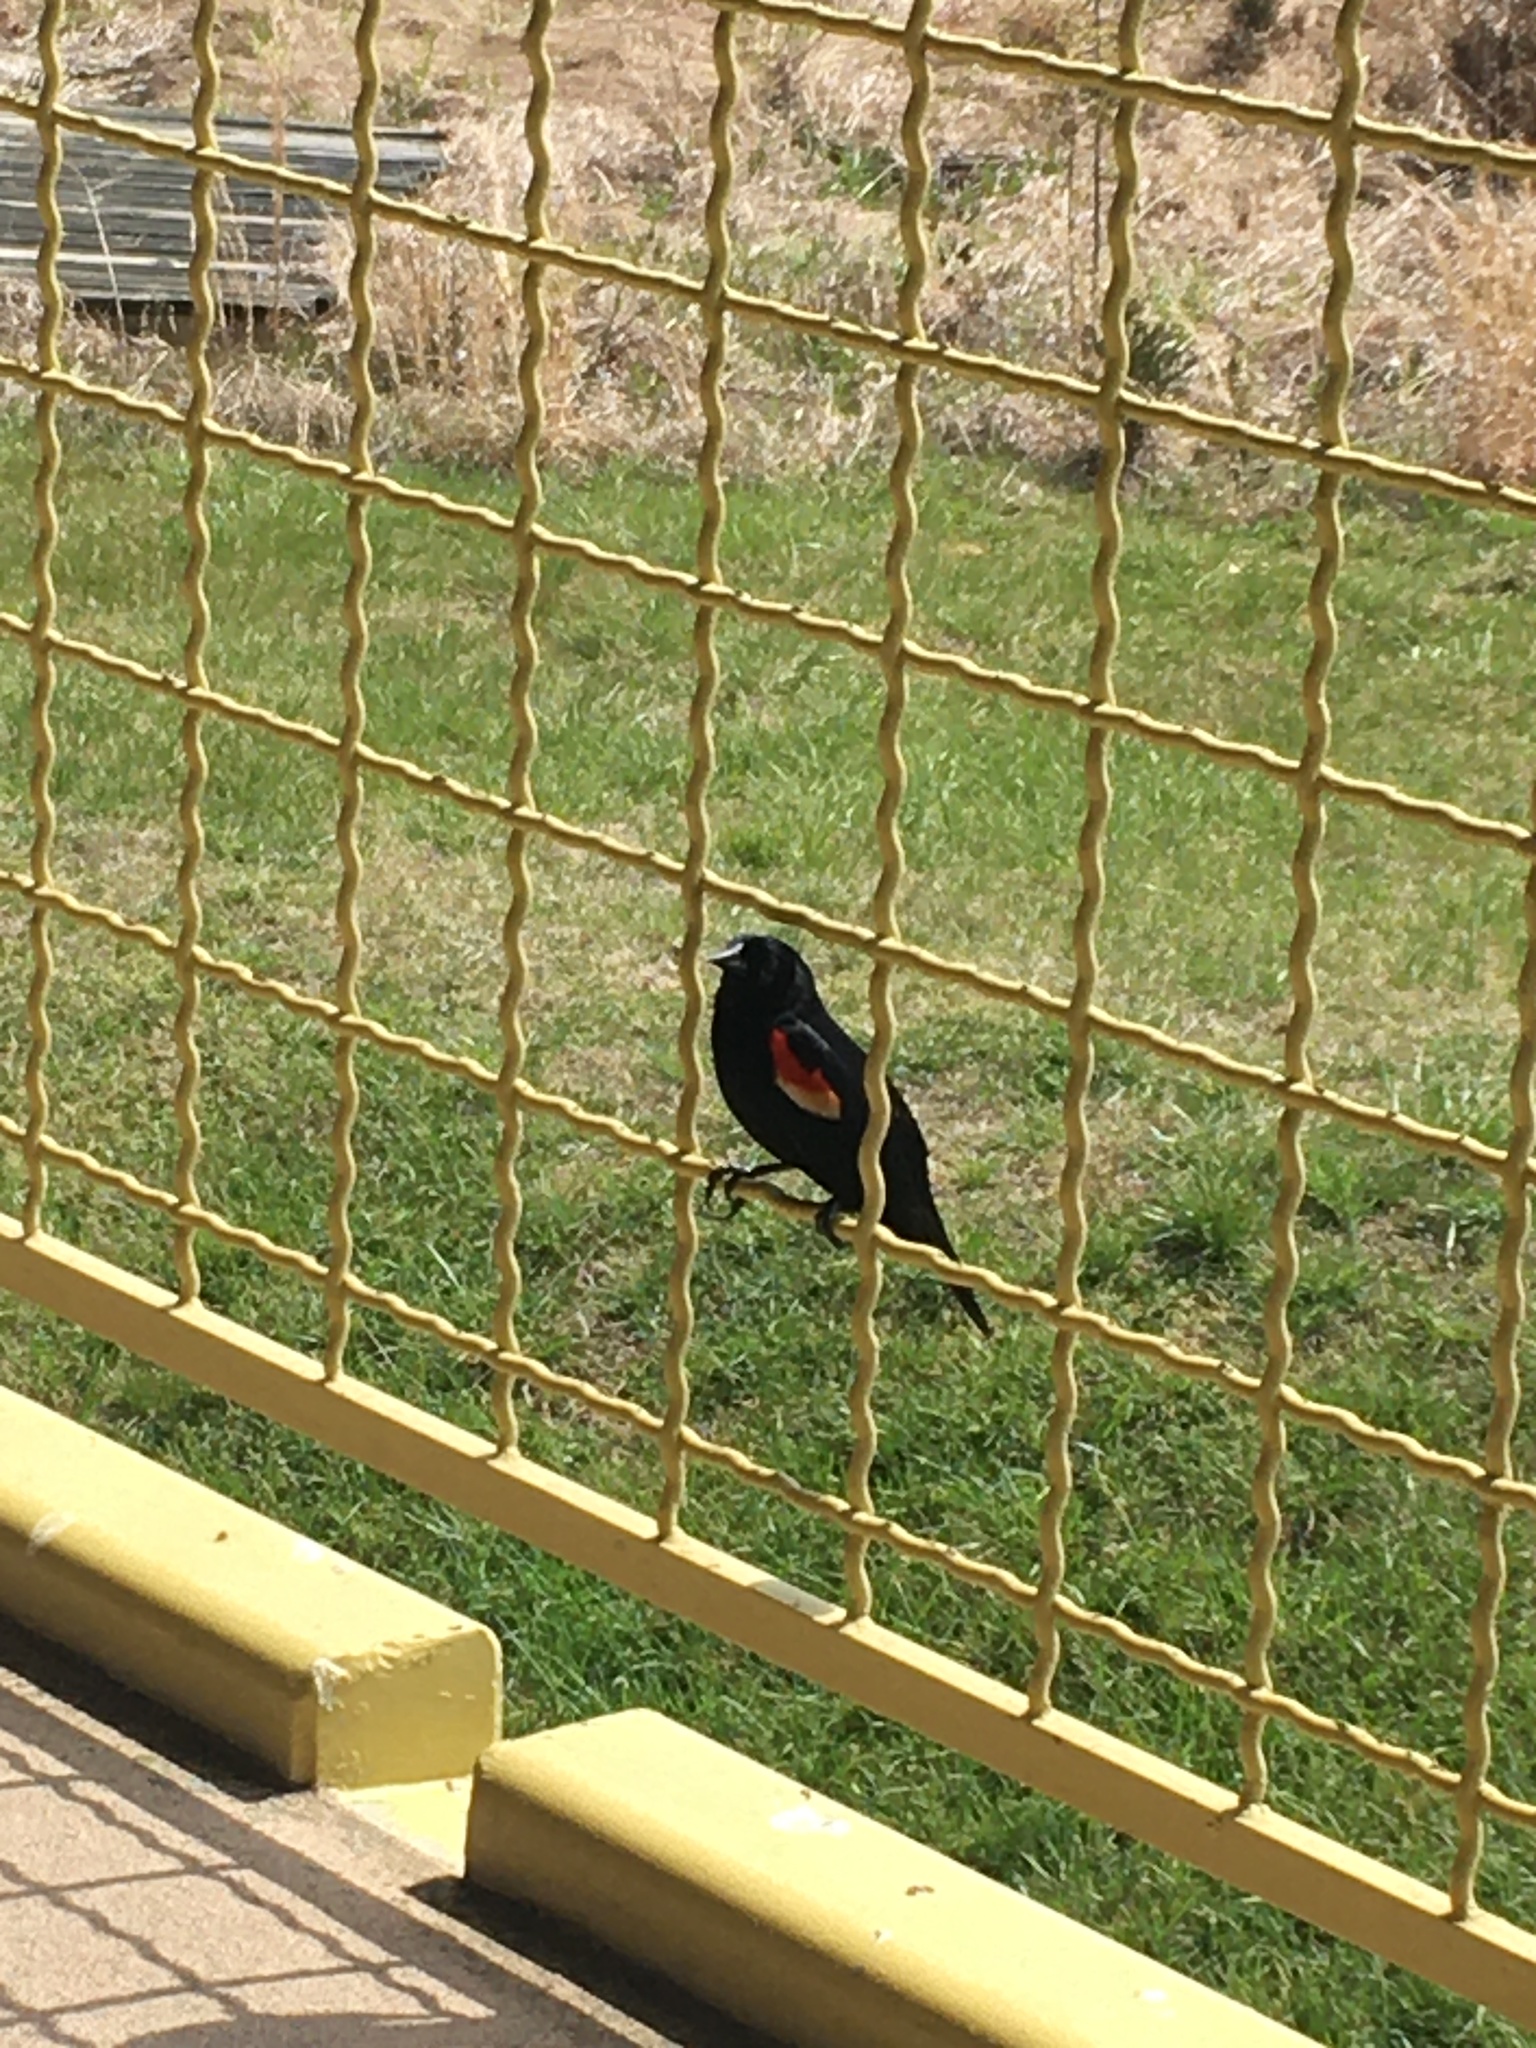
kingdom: Animalia
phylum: Chordata
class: Aves
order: Passeriformes
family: Icteridae
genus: Agelaius
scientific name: Agelaius phoeniceus
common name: Red-winged blackbird
